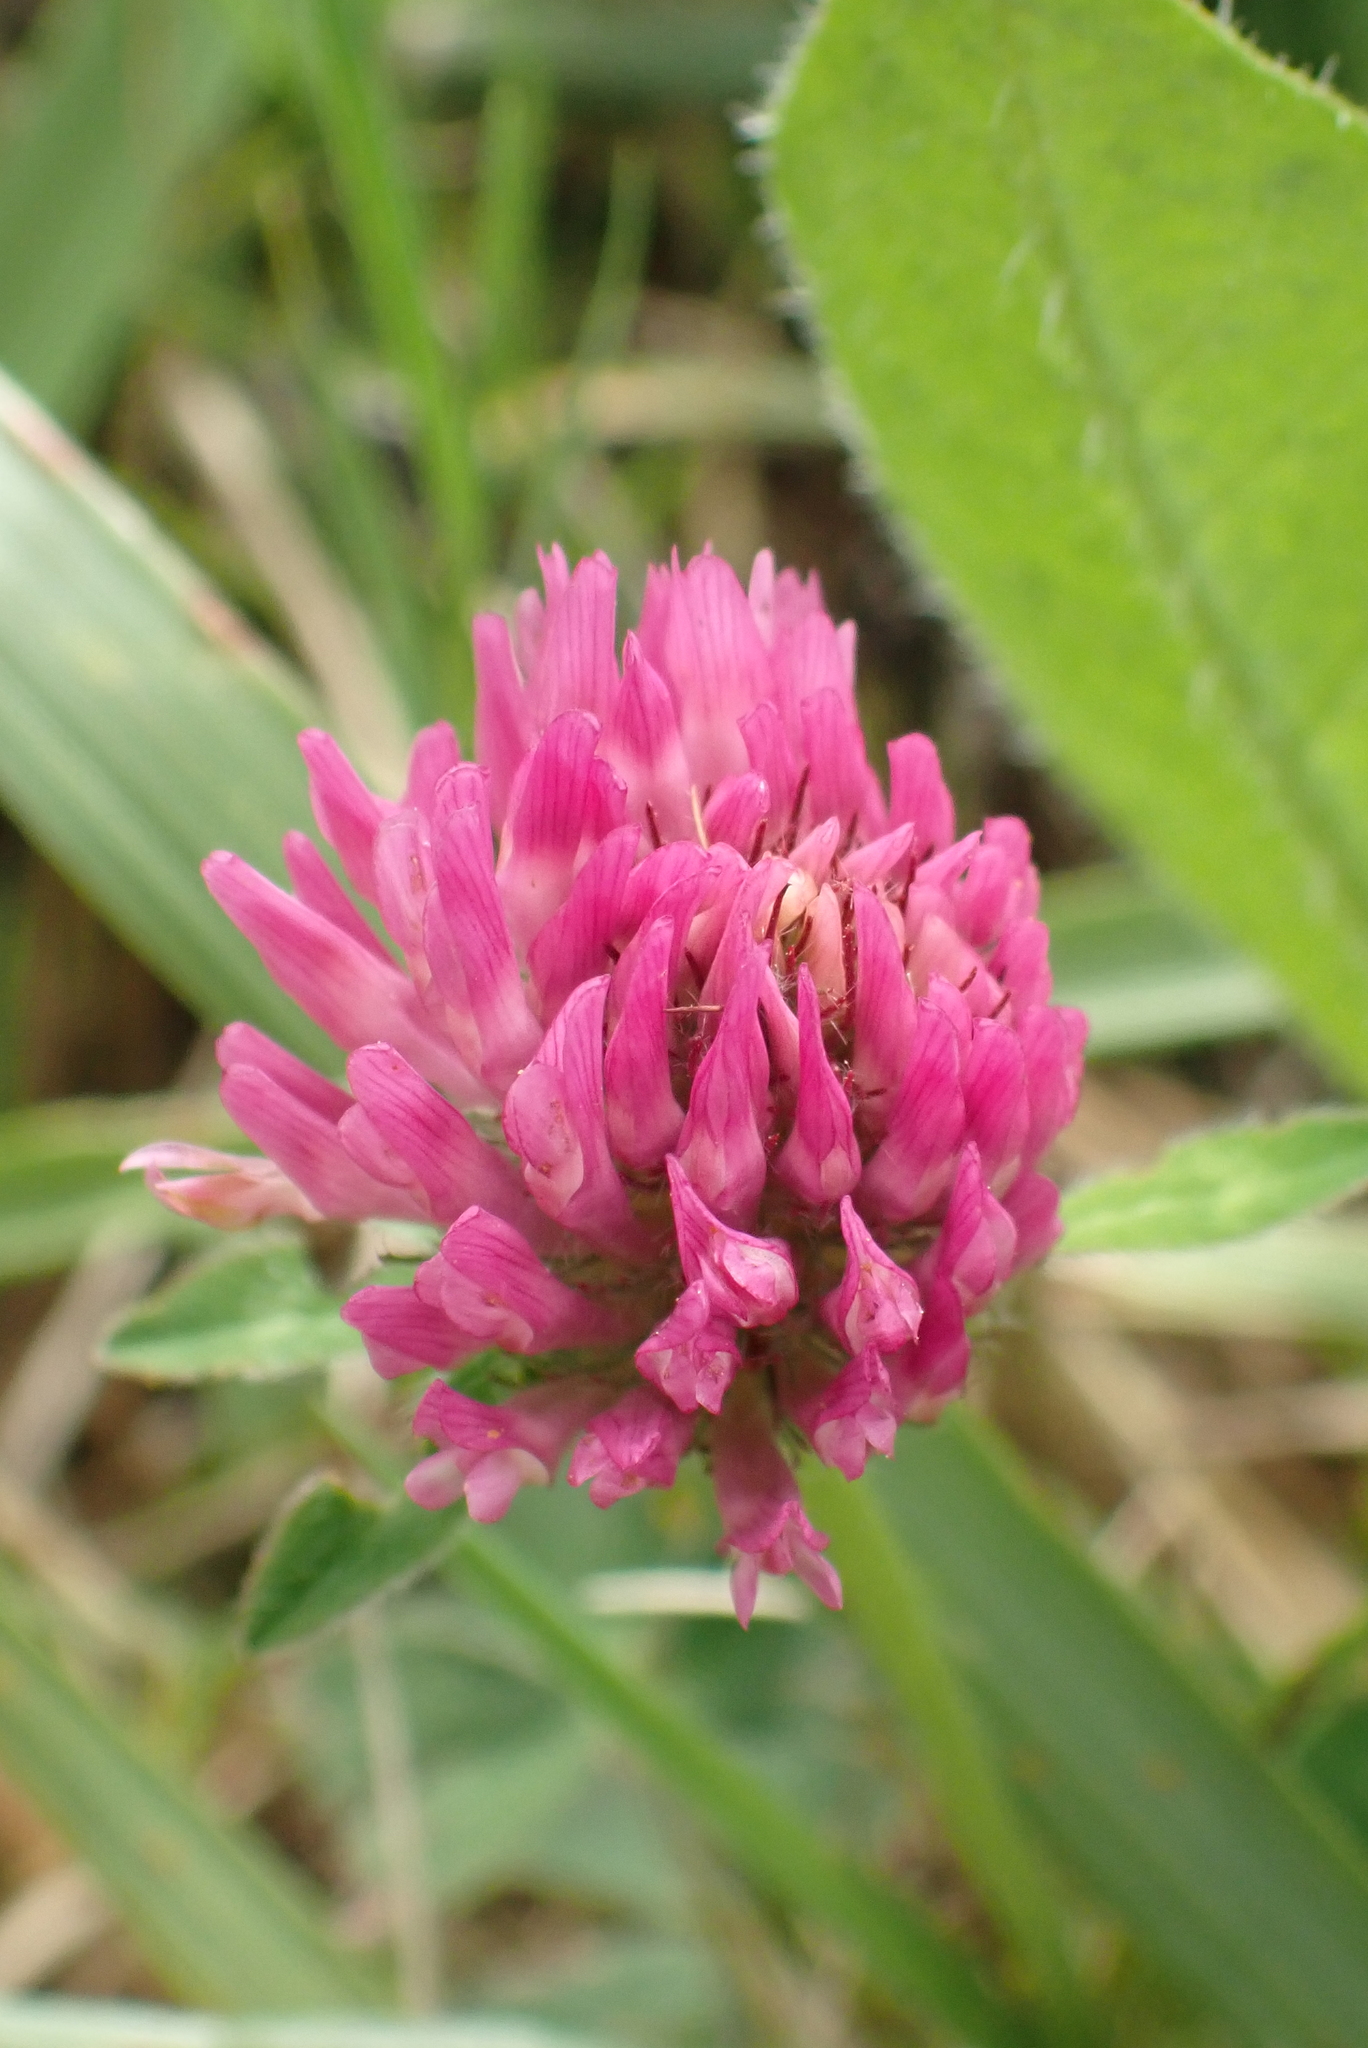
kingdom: Plantae
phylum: Tracheophyta
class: Magnoliopsida
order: Fabales
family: Fabaceae
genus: Trifolium
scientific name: Trifolium pratense
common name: Red clover
